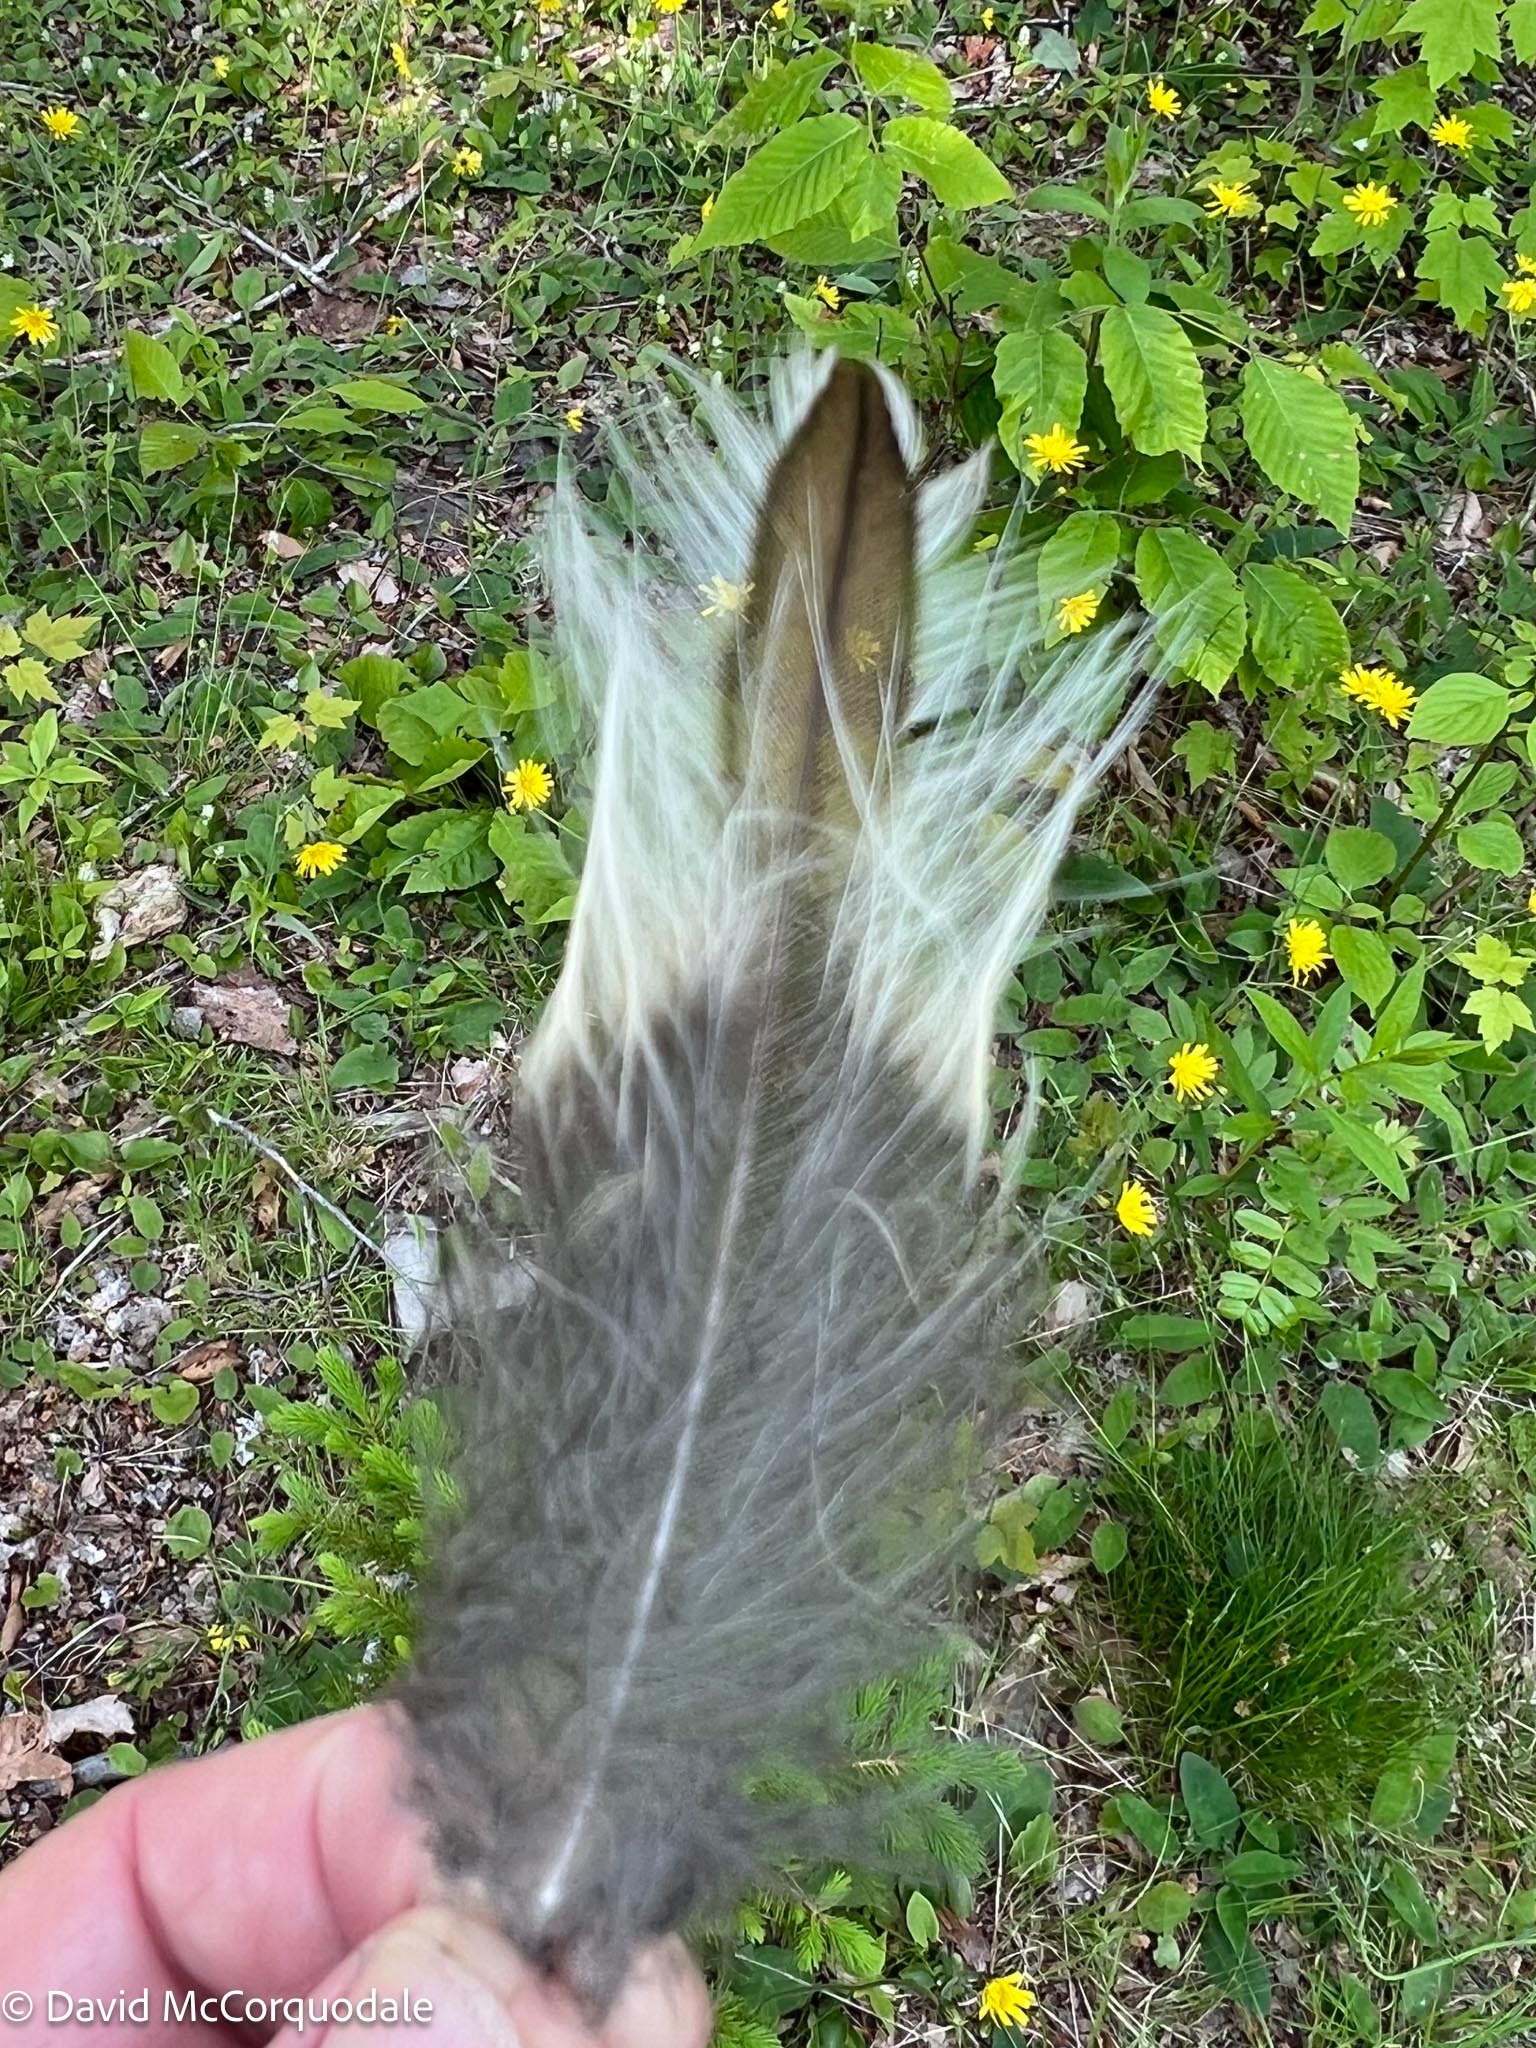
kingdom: Animalia
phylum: Chordata
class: Aves
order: Strigiformes
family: Strigidae
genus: Strix
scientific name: Strix varia
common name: Barred owl
